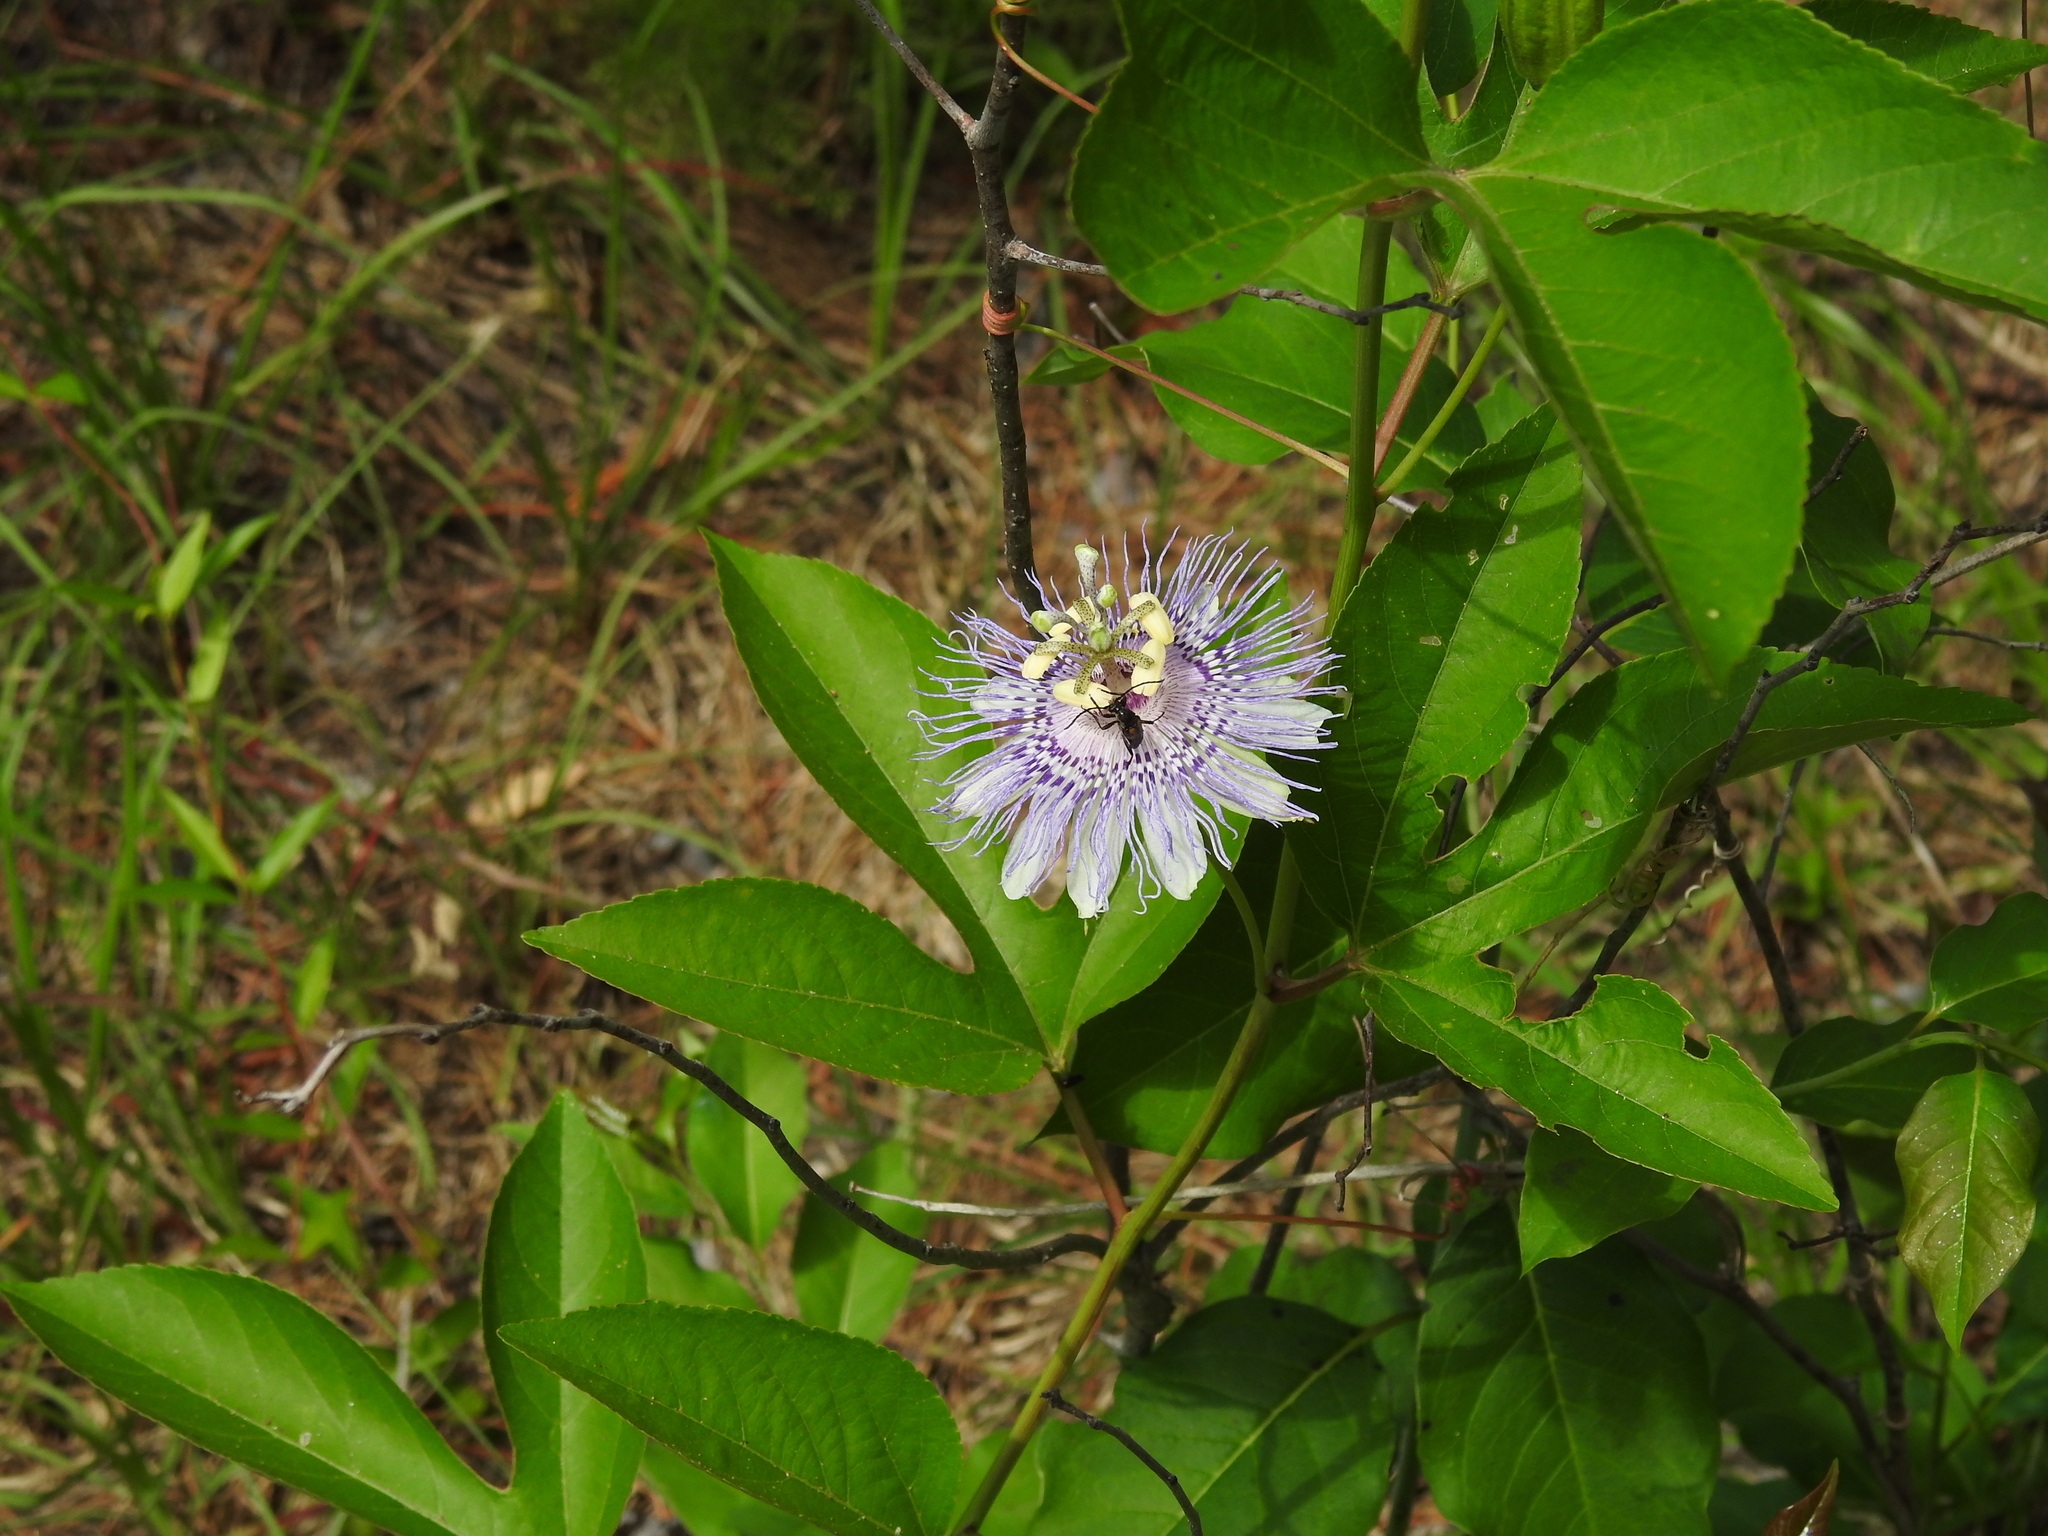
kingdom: Plantae
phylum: Tracheophyta
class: Magnoliopsida
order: Malpighiales
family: Passifloraceae
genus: Passiflora
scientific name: Passiflora incarnata
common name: Apricot-vine
